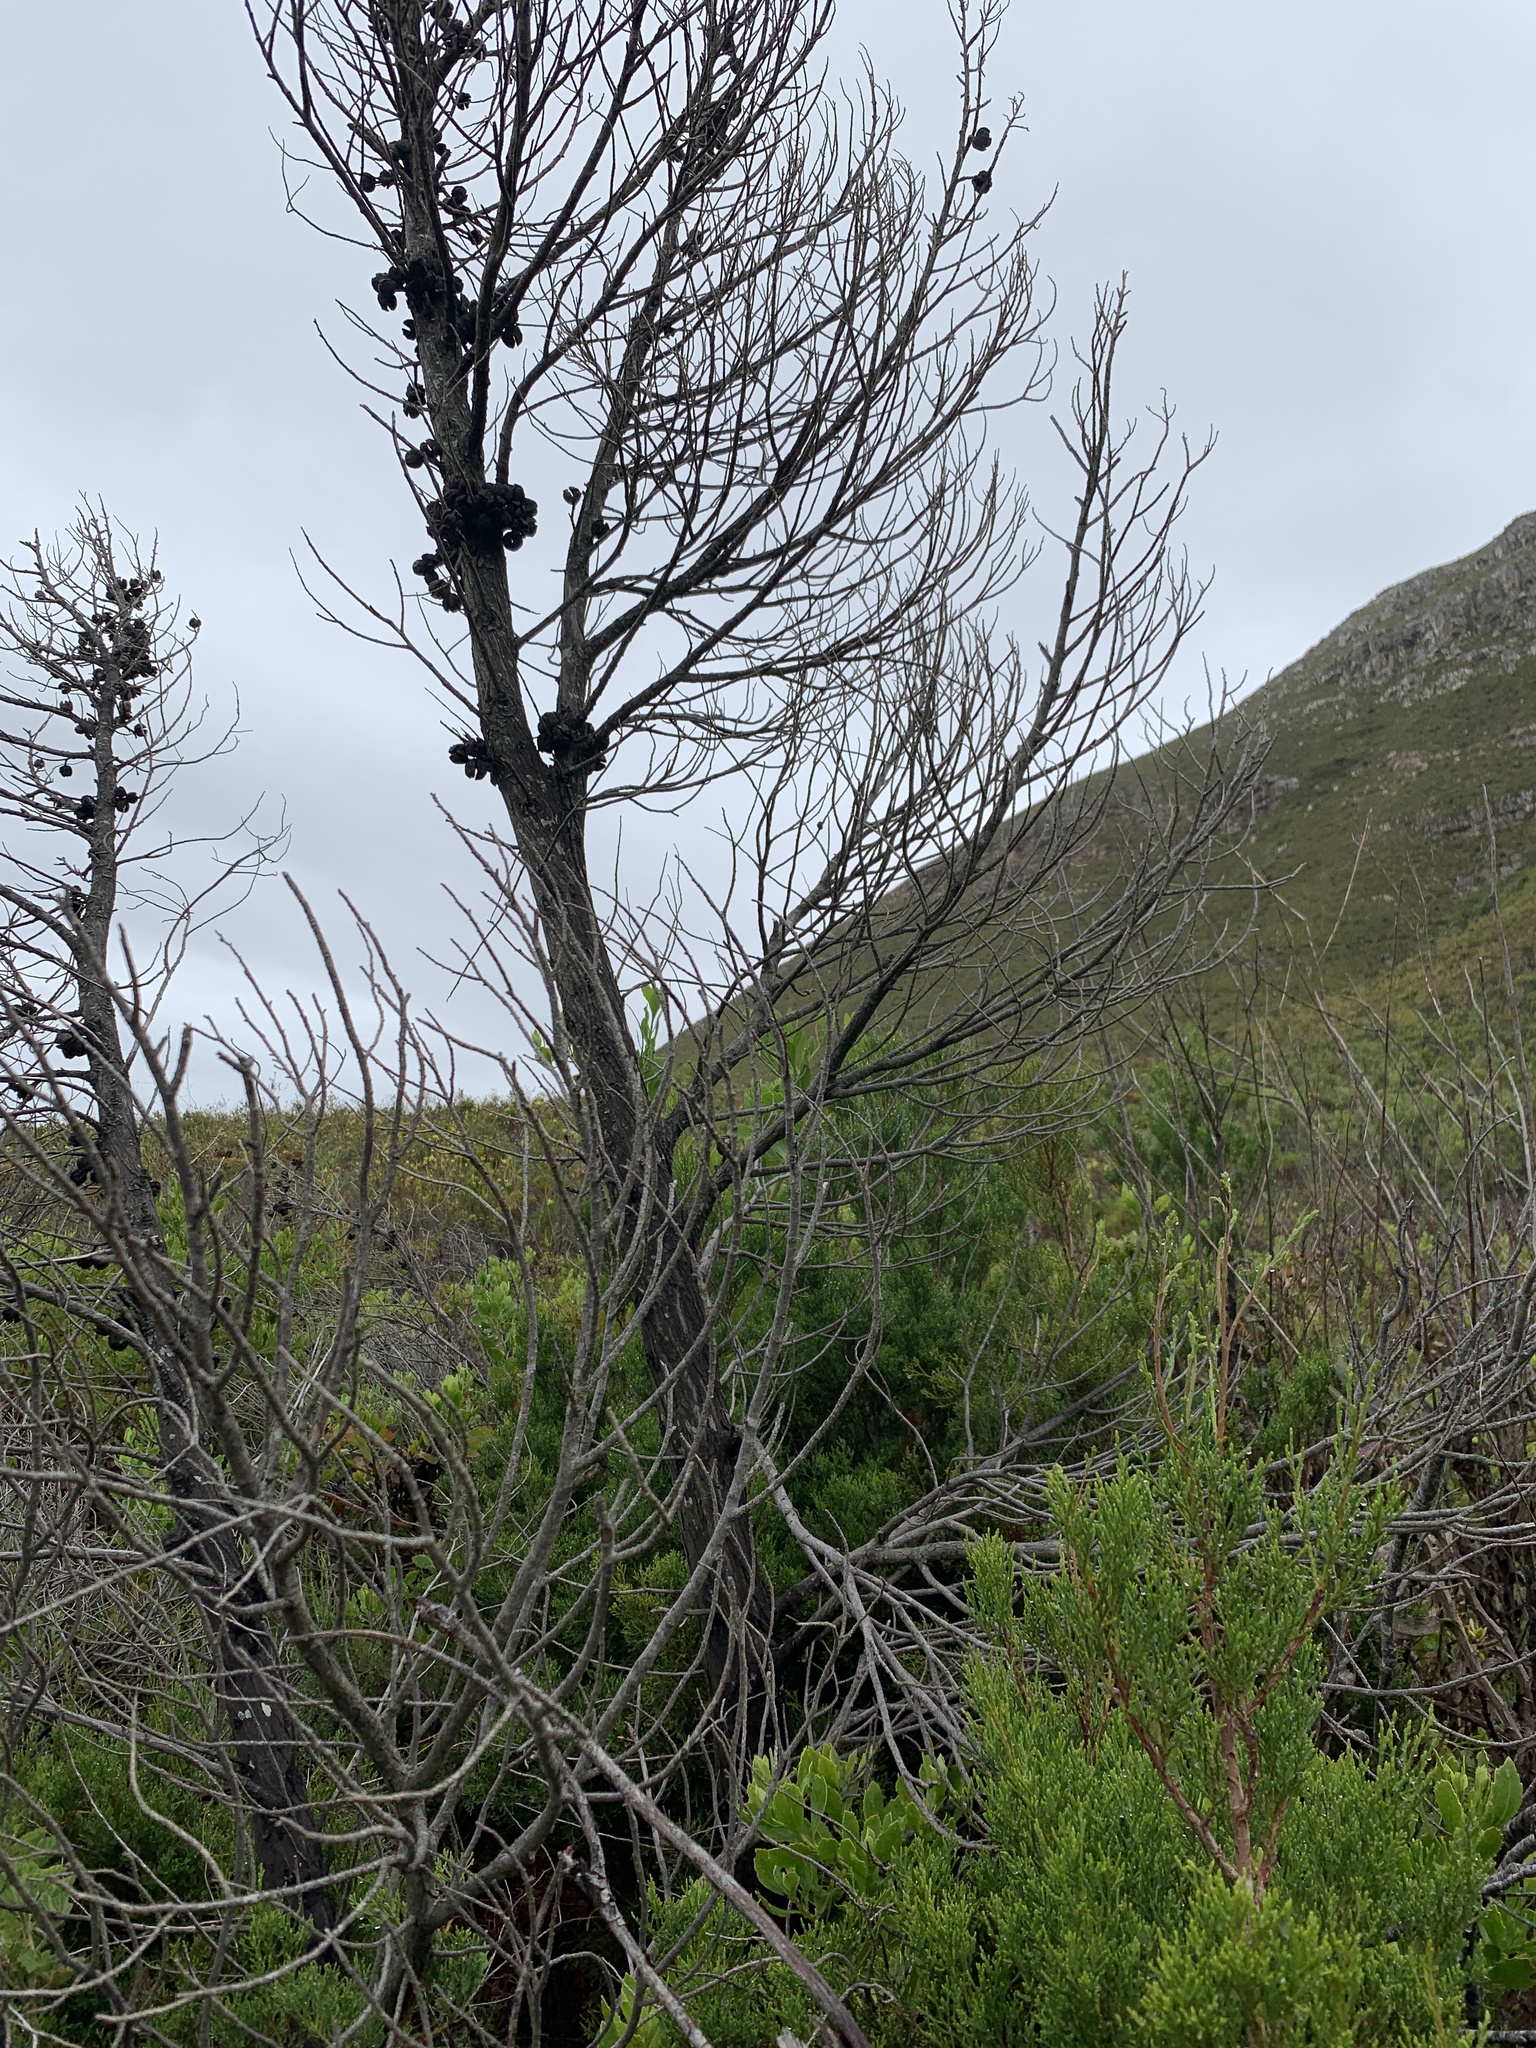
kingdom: Plantae
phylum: Tracheophyta
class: Pinopsida
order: Pinales
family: Cupressaceae
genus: Widdringtonia
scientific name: Widdringtonia nodiflora
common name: Cape cypress
